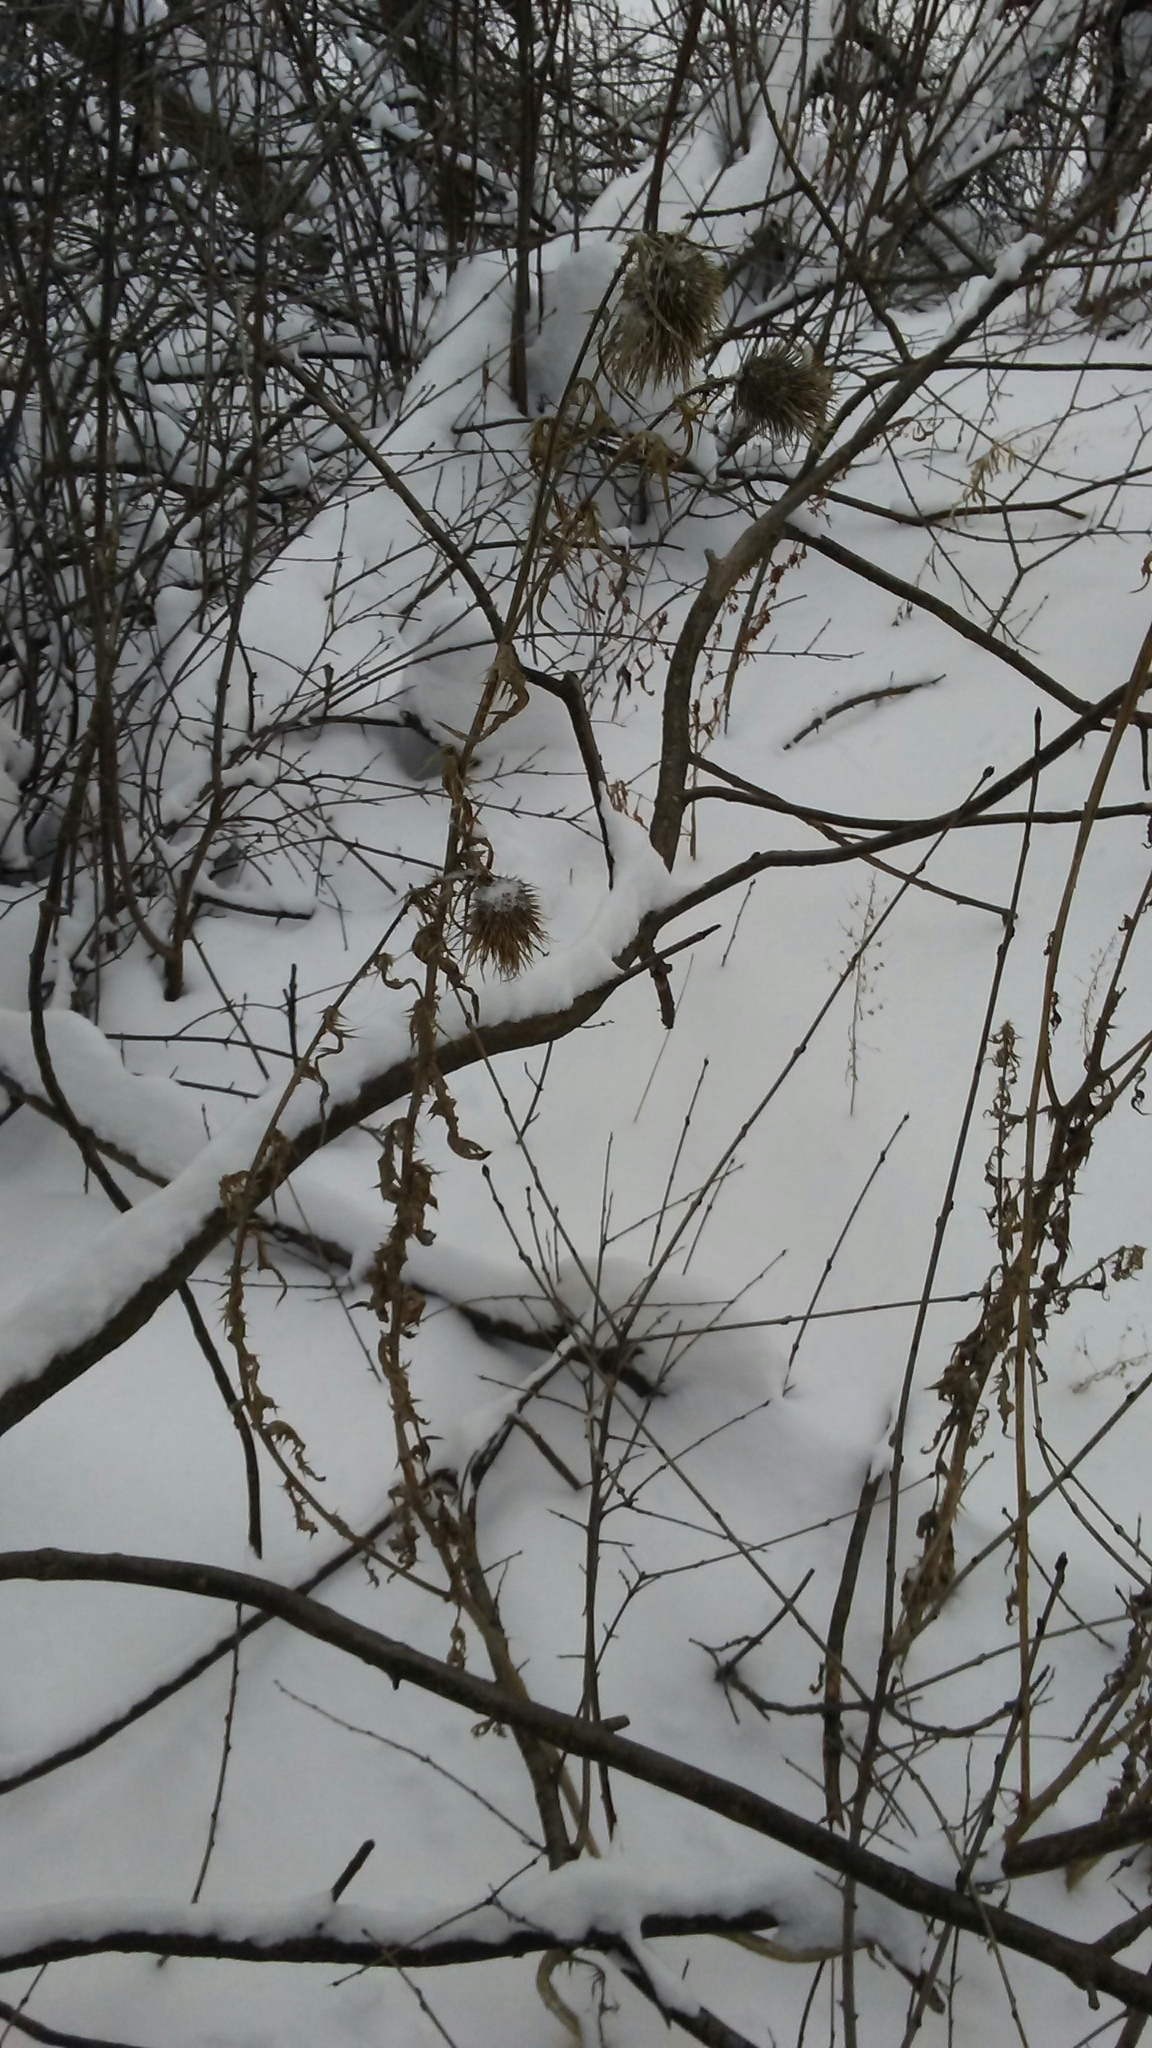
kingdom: Plantae
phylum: Tracheophyta
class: Magnoliopsida
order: Asterales
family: Asteraceae
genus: Cirsium
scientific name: Cirsium vulgare
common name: Bull thistle
